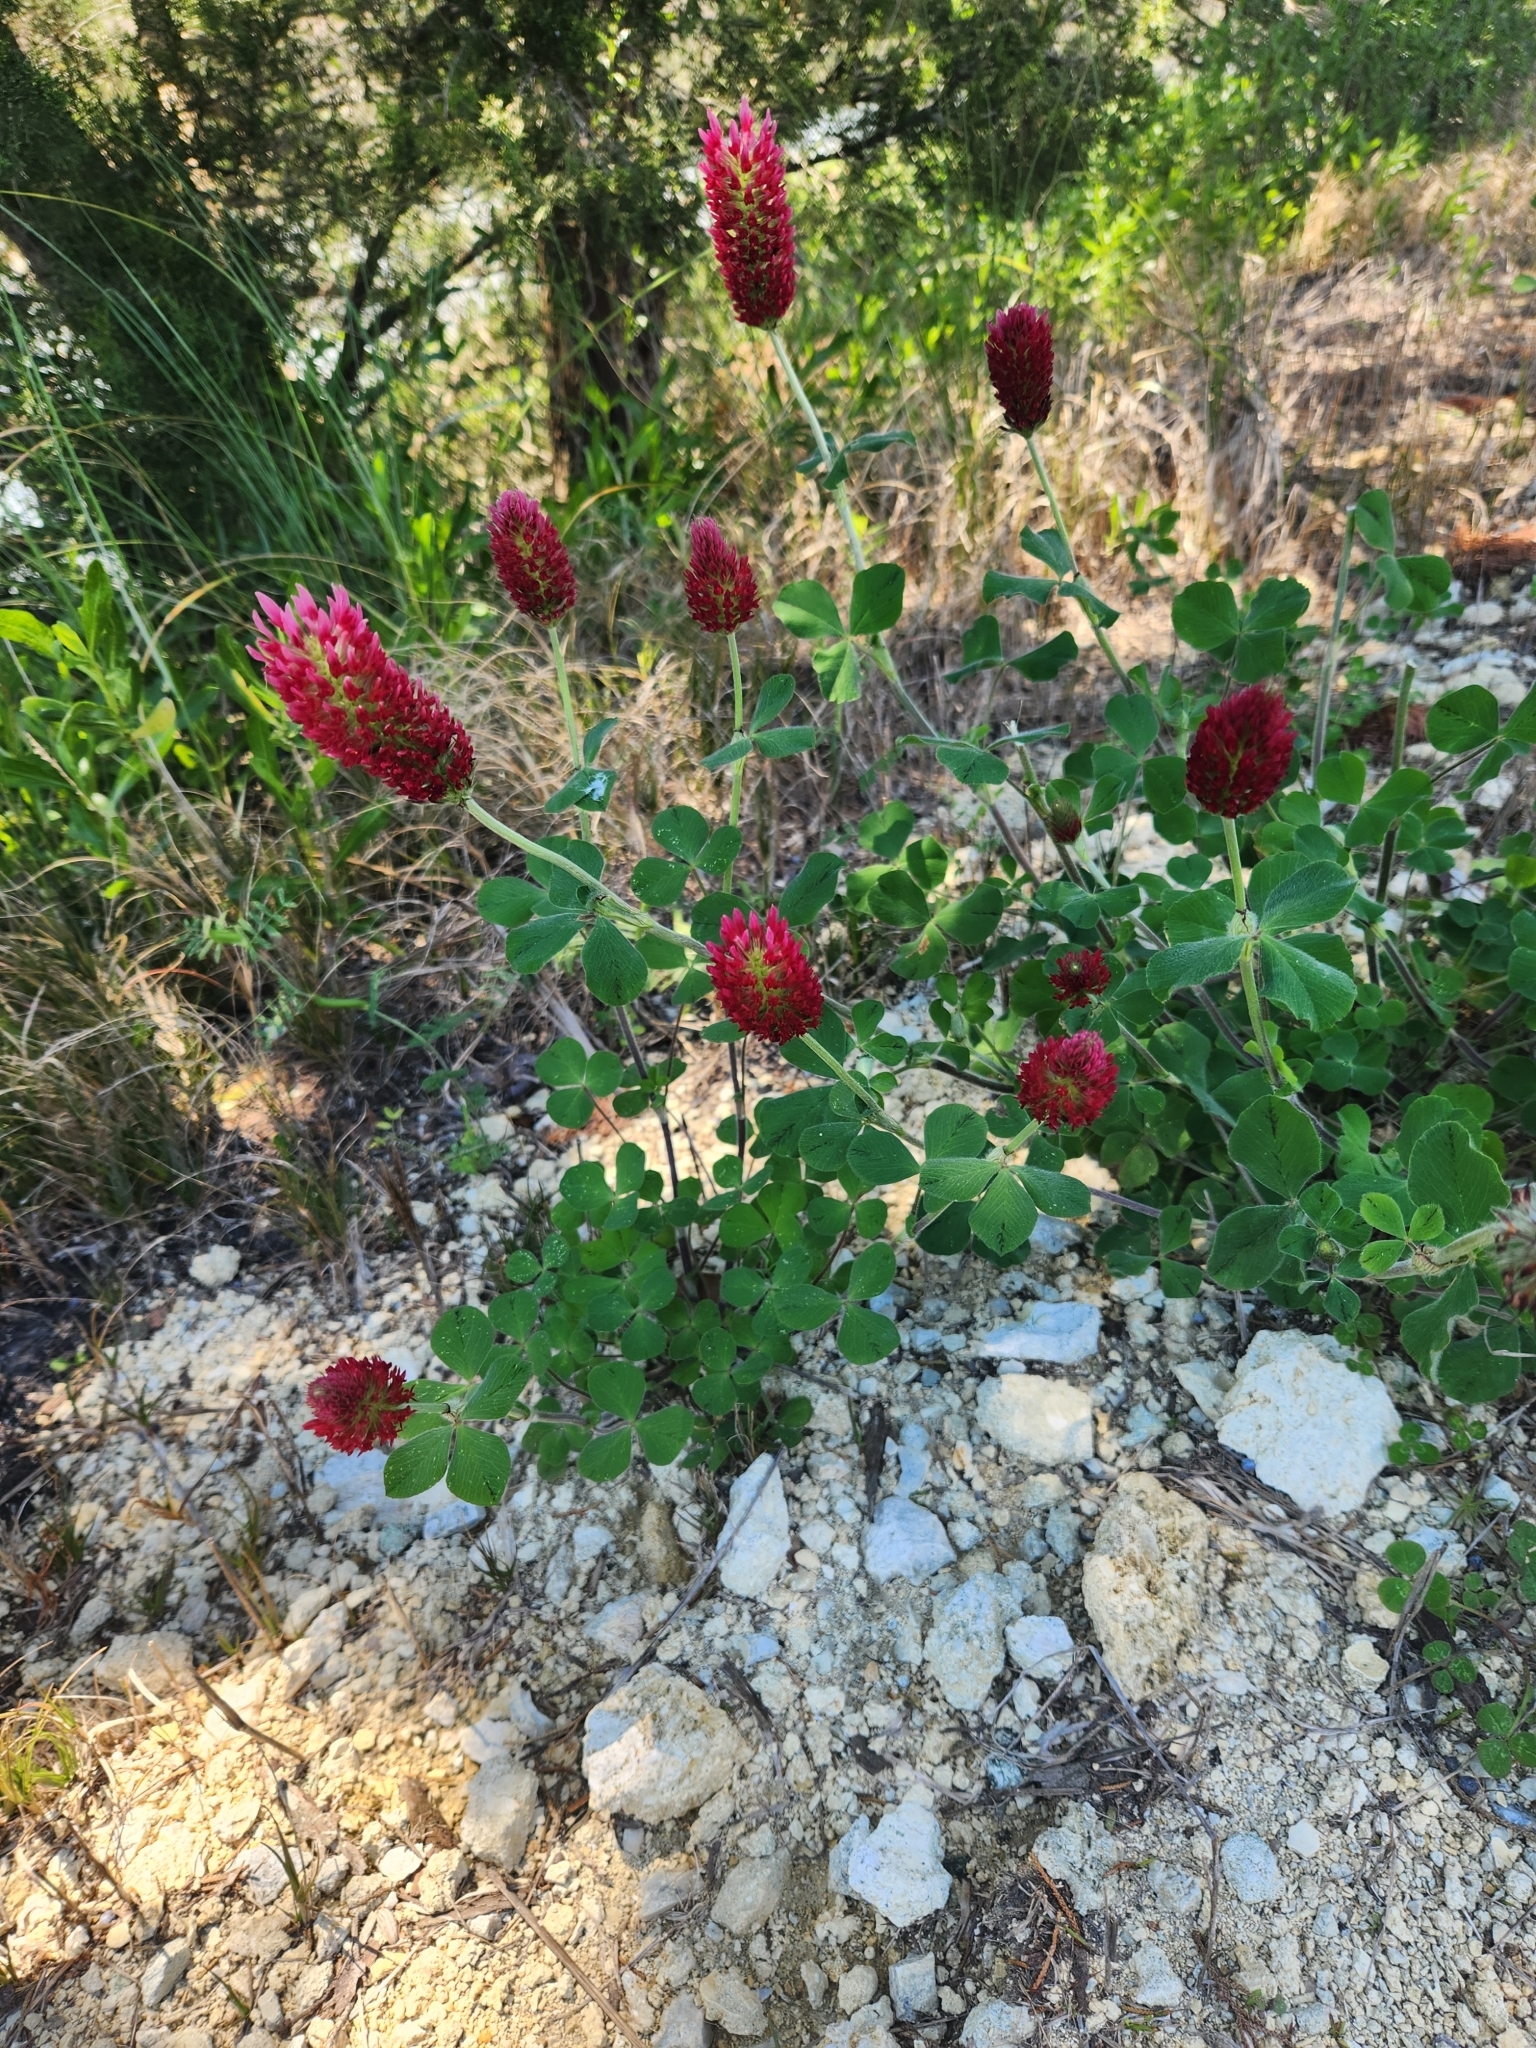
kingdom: Plantae
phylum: Tracheophyta
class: Magnoliopsida
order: Fabales
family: Fabaceae
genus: Trifolium
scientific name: Trifolium incarnatum
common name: Crimson clover
